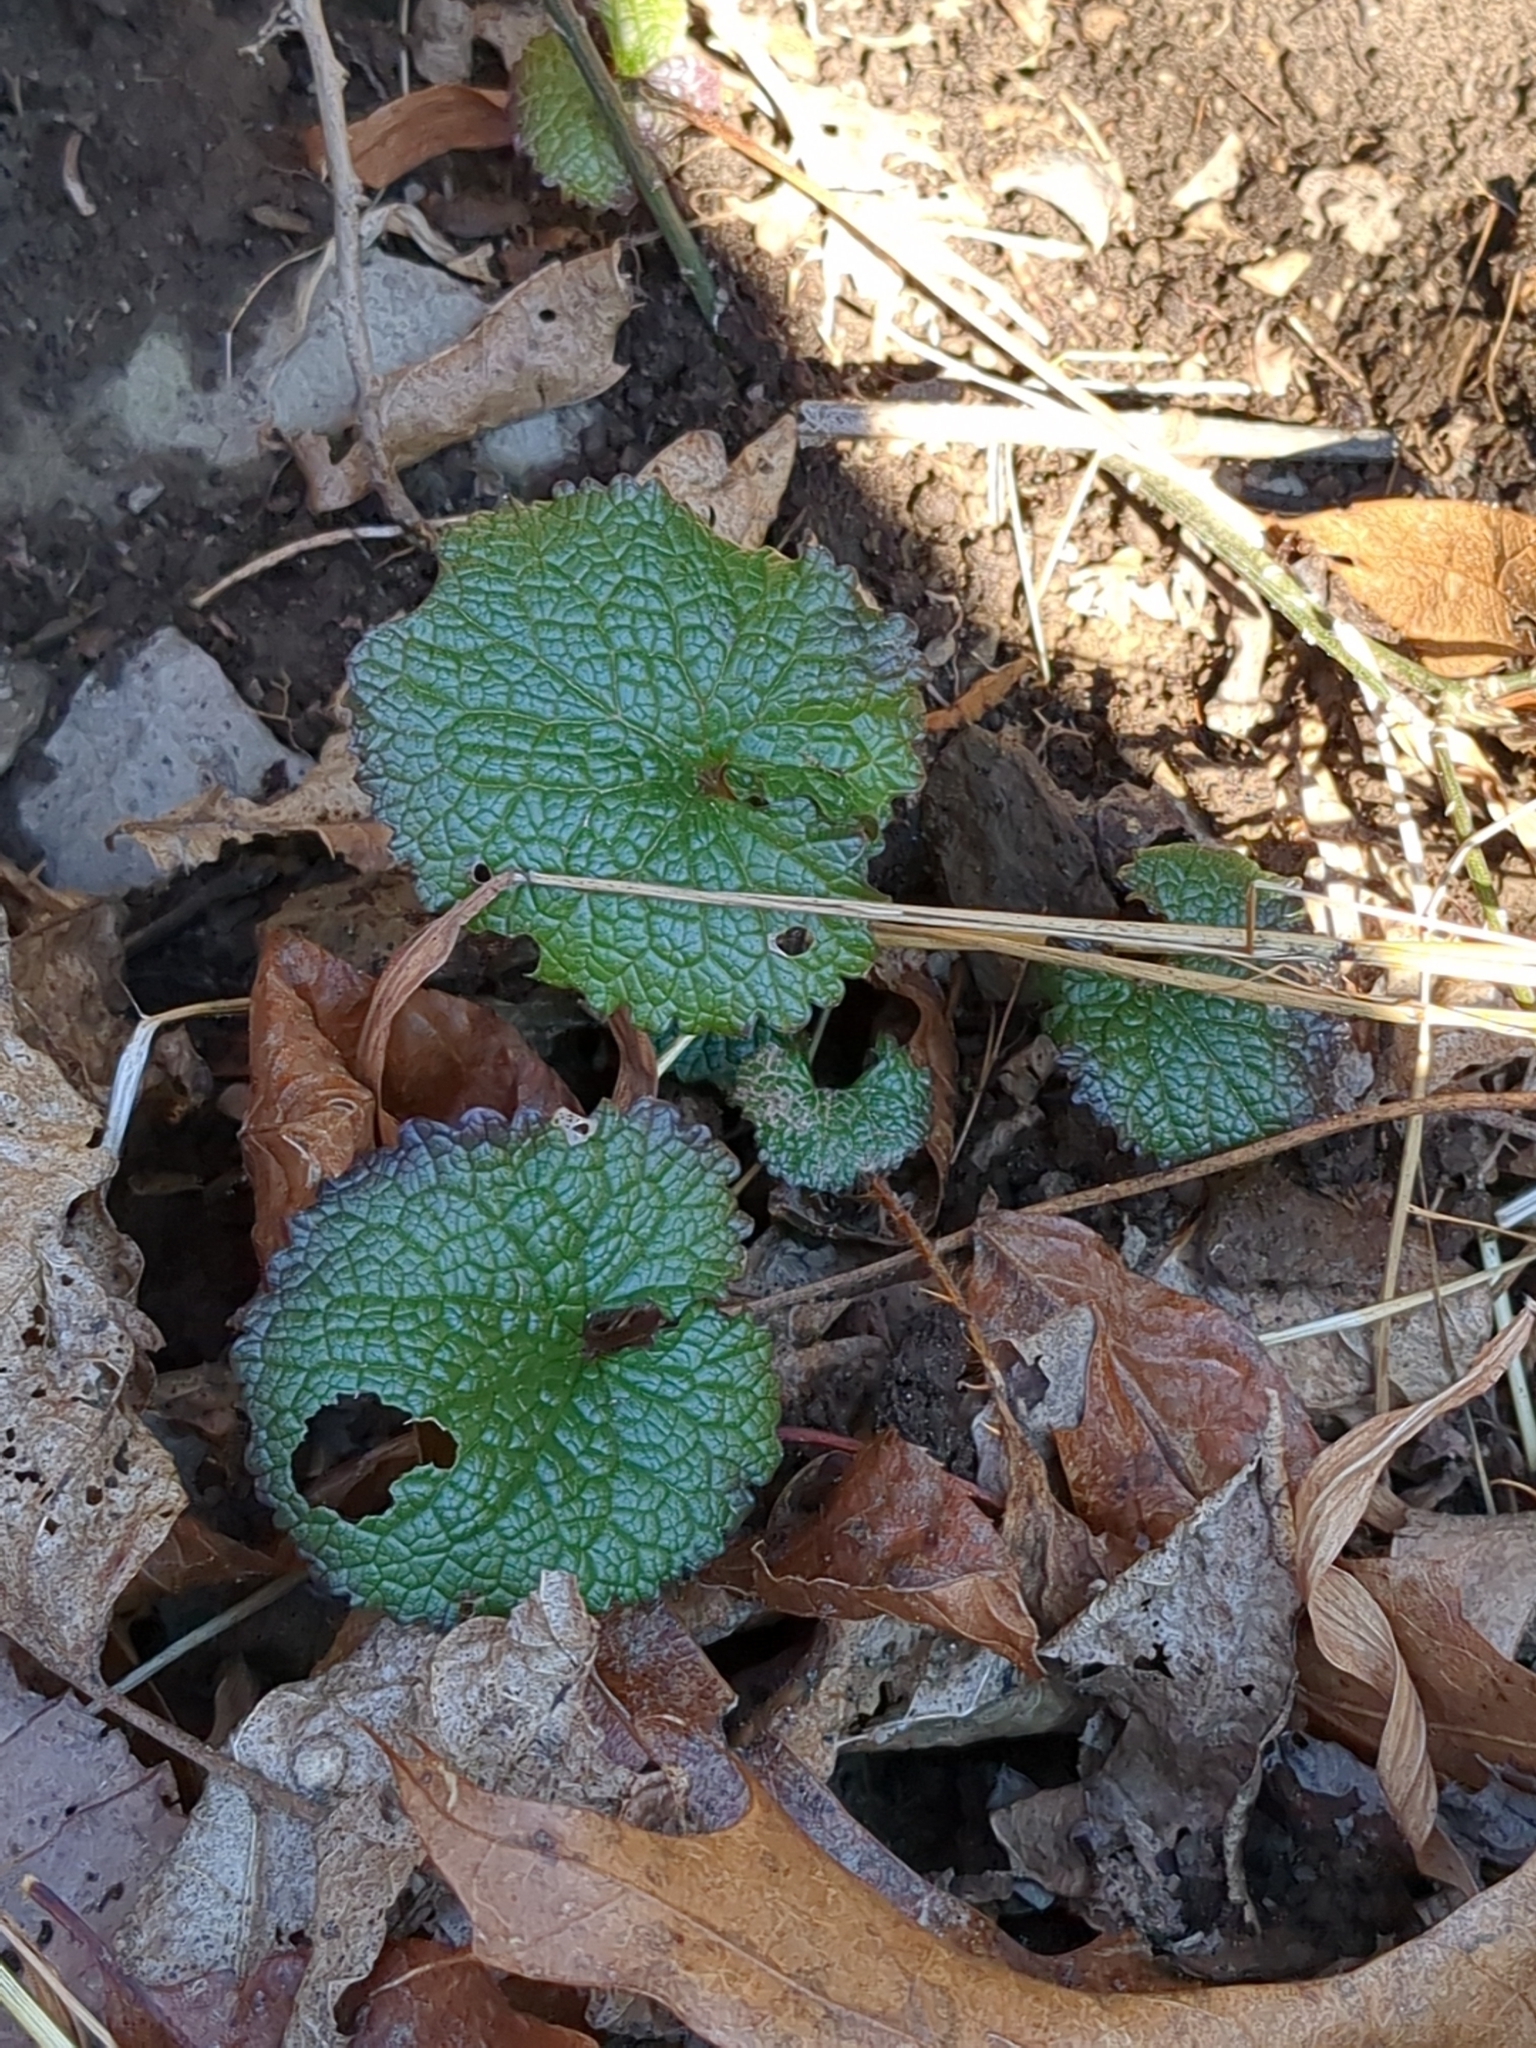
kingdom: Plantae
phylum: Tracheophyta
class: Magnoliopsida
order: Brassicales
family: Brassicaceae
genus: Alliaria
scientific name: Alliaria petiolata
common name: Garlic mustard
